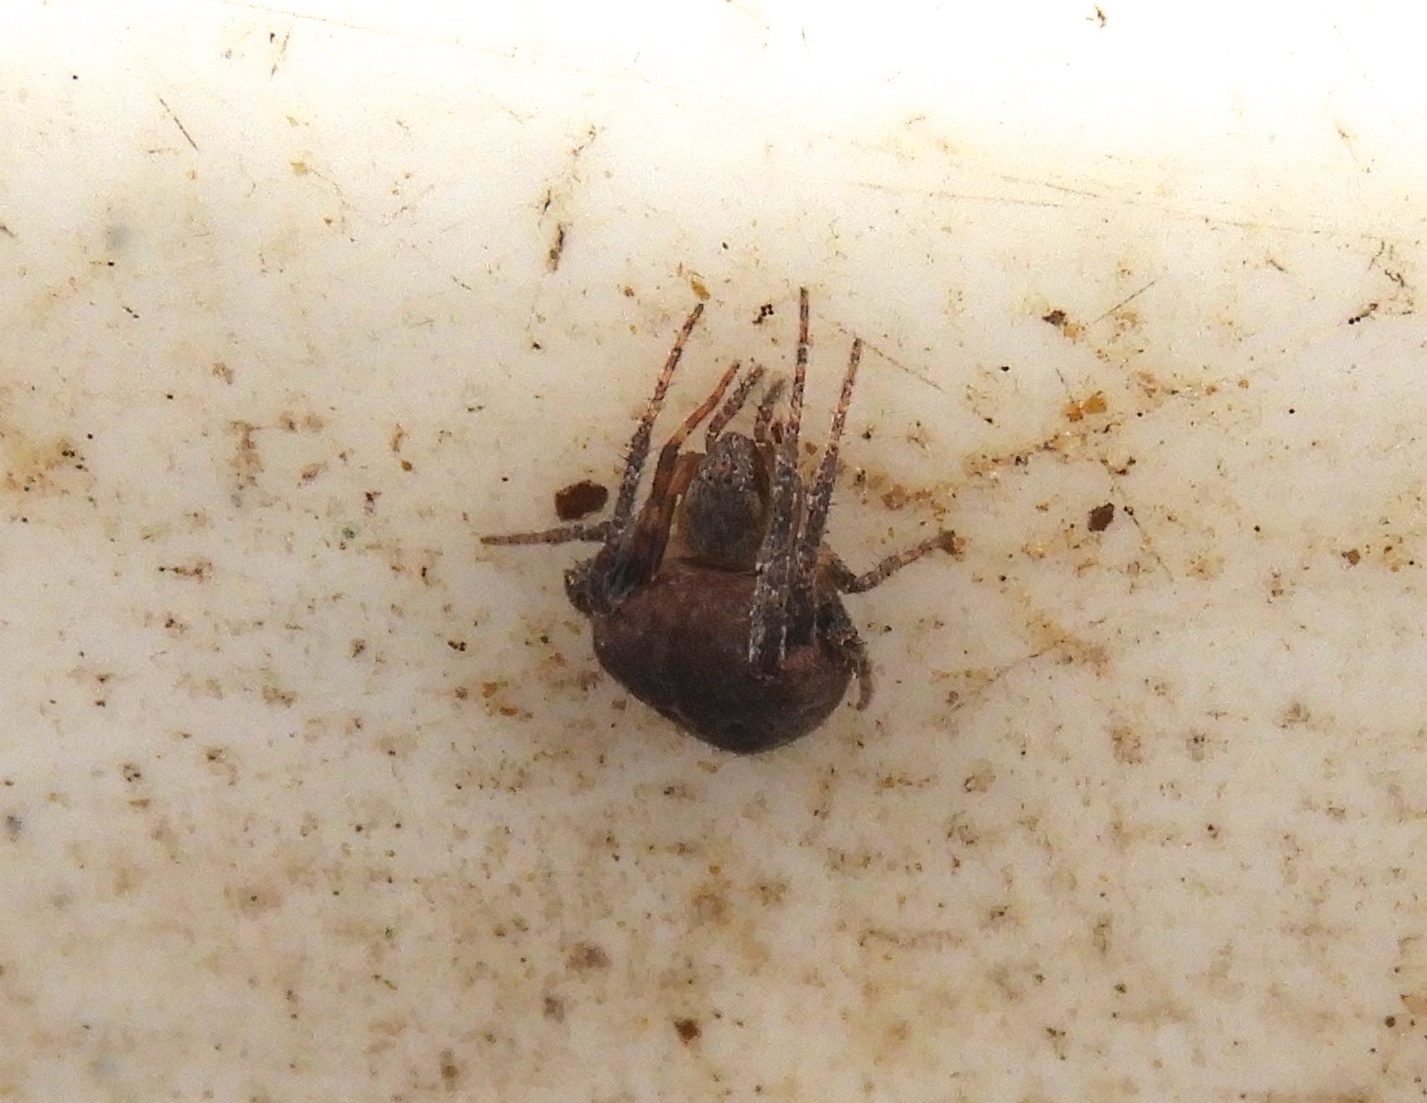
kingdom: Animalia
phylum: Arthropoda
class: Arachnida
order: Araneae
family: Araneidae
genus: Eriophora
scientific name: Eriophora
